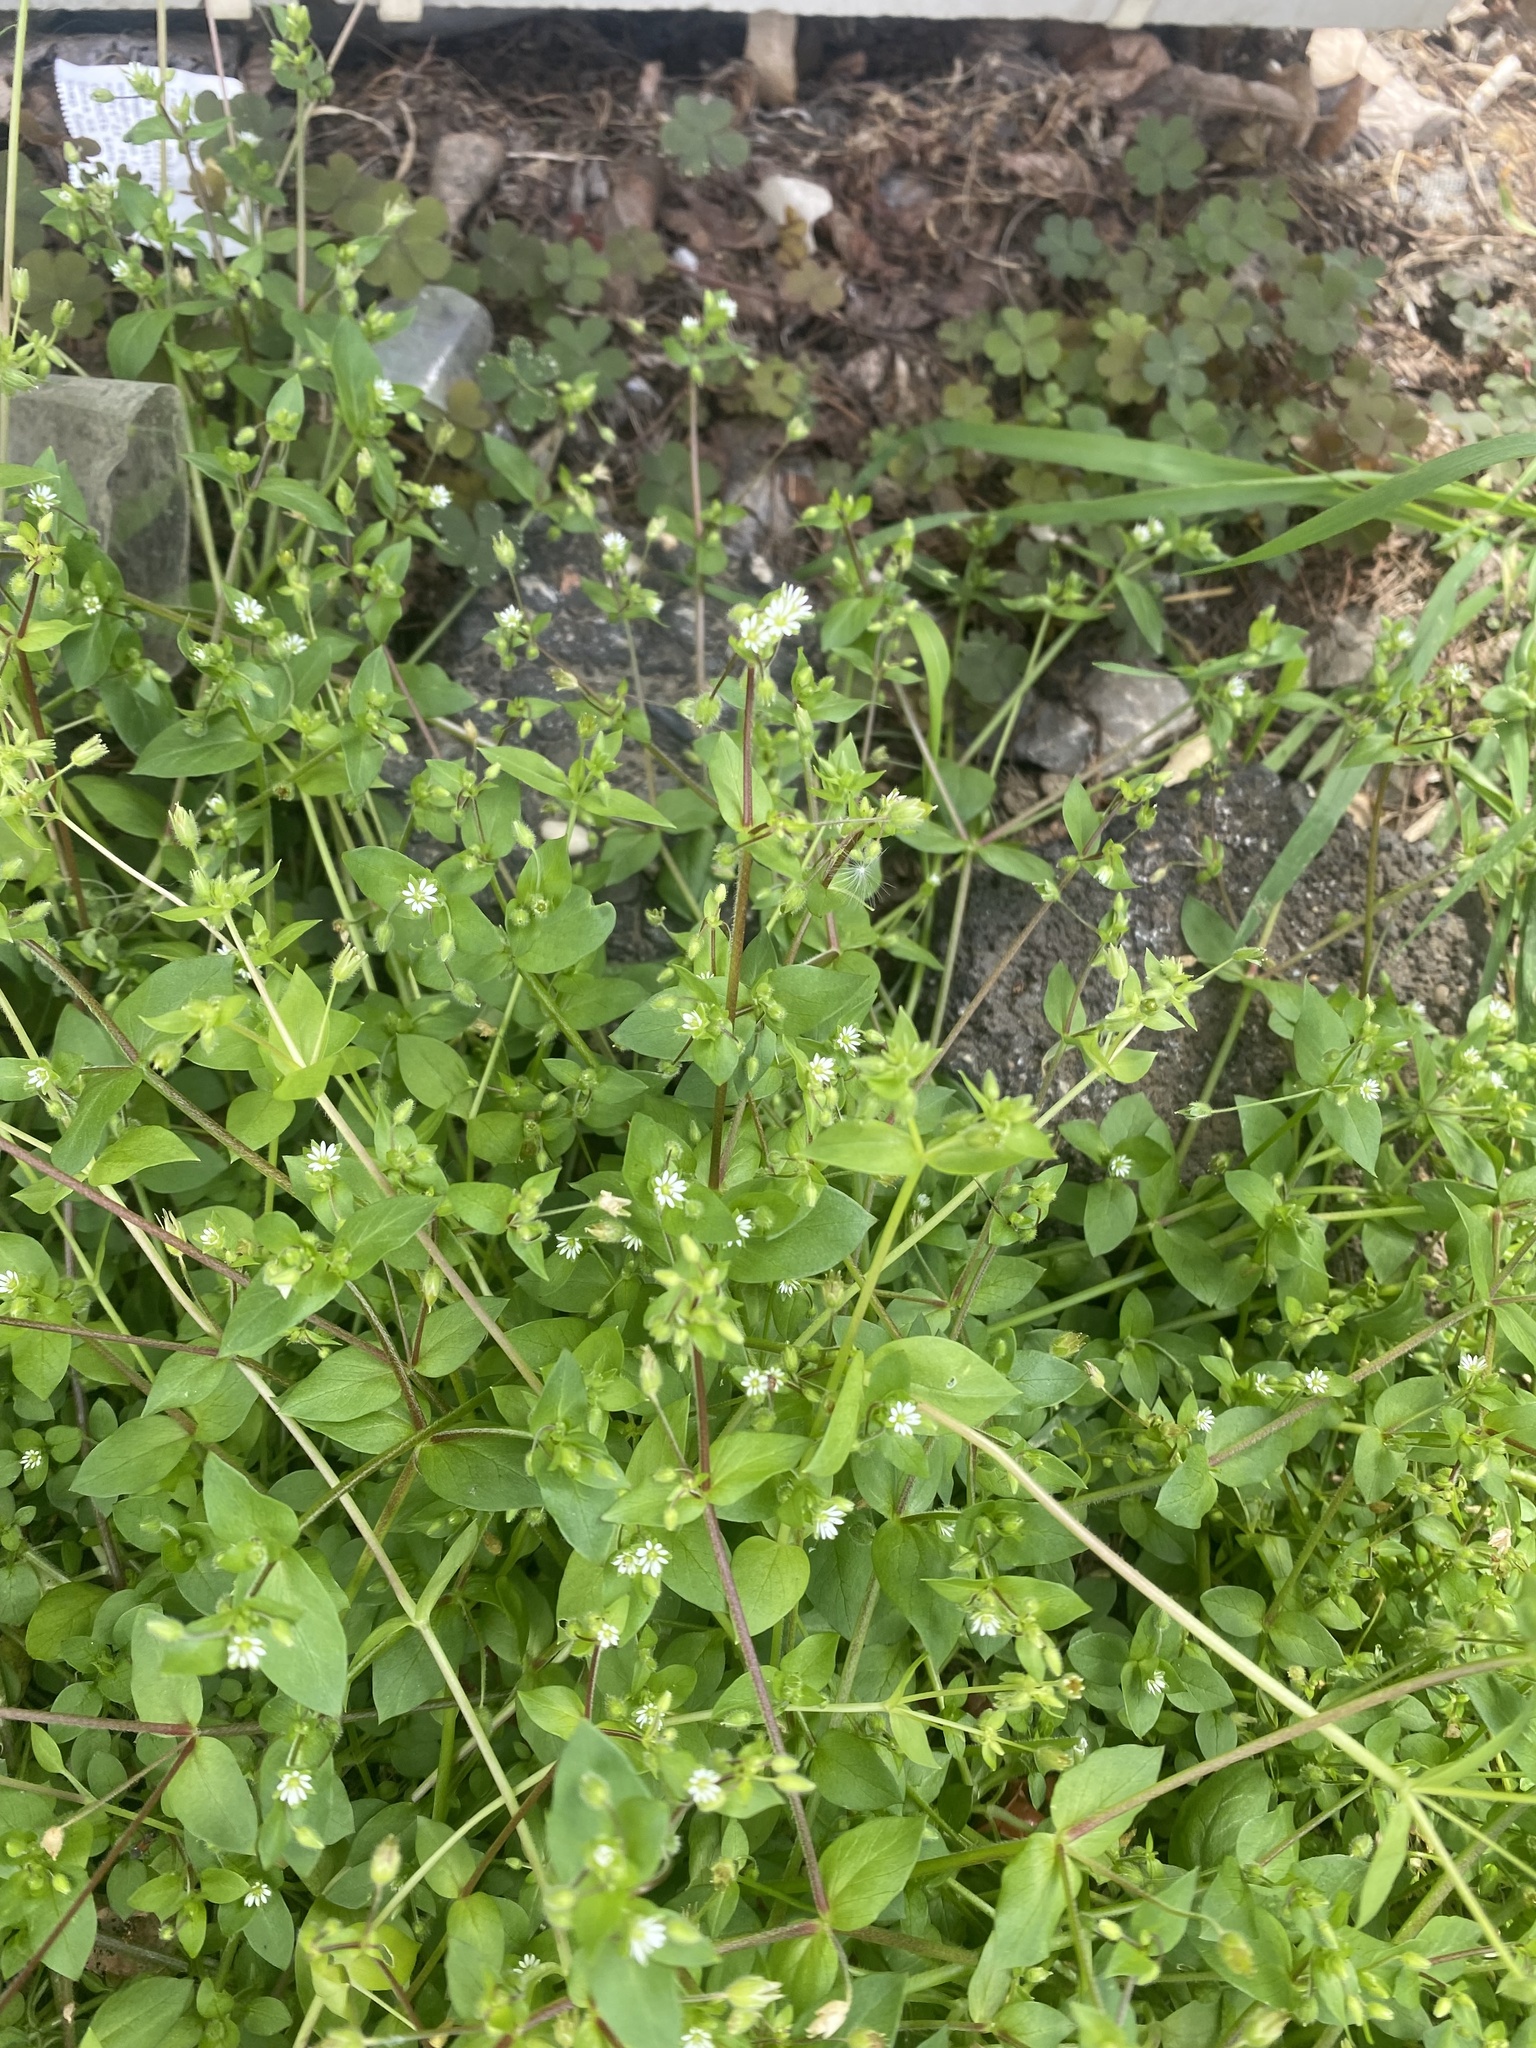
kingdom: Plantae
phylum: Tracheophyta
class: Magnoliopsida
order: Caryophyllales
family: Caryophyllaceae
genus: Stellaria
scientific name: Stellaria media
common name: Common chickweed
